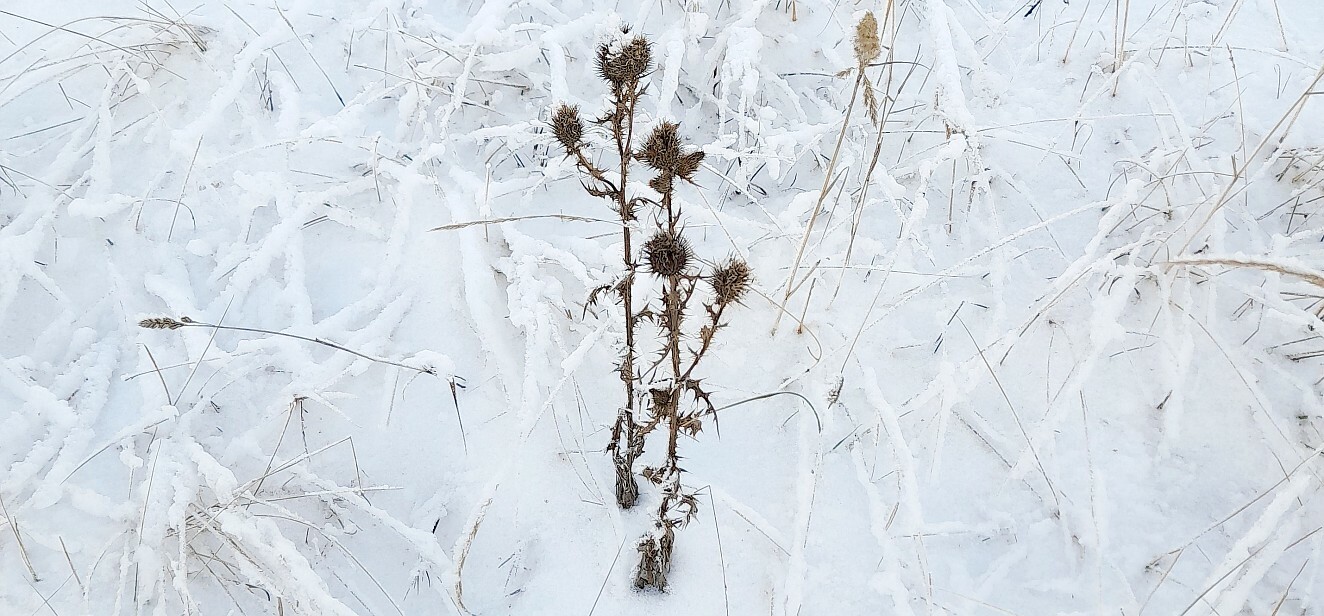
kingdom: Plantae
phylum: Tracheophyta
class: Magnoliopsida
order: Asterales
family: Asteraceae
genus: Cirsium
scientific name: Cirsium vulgare
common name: Bull thistle
